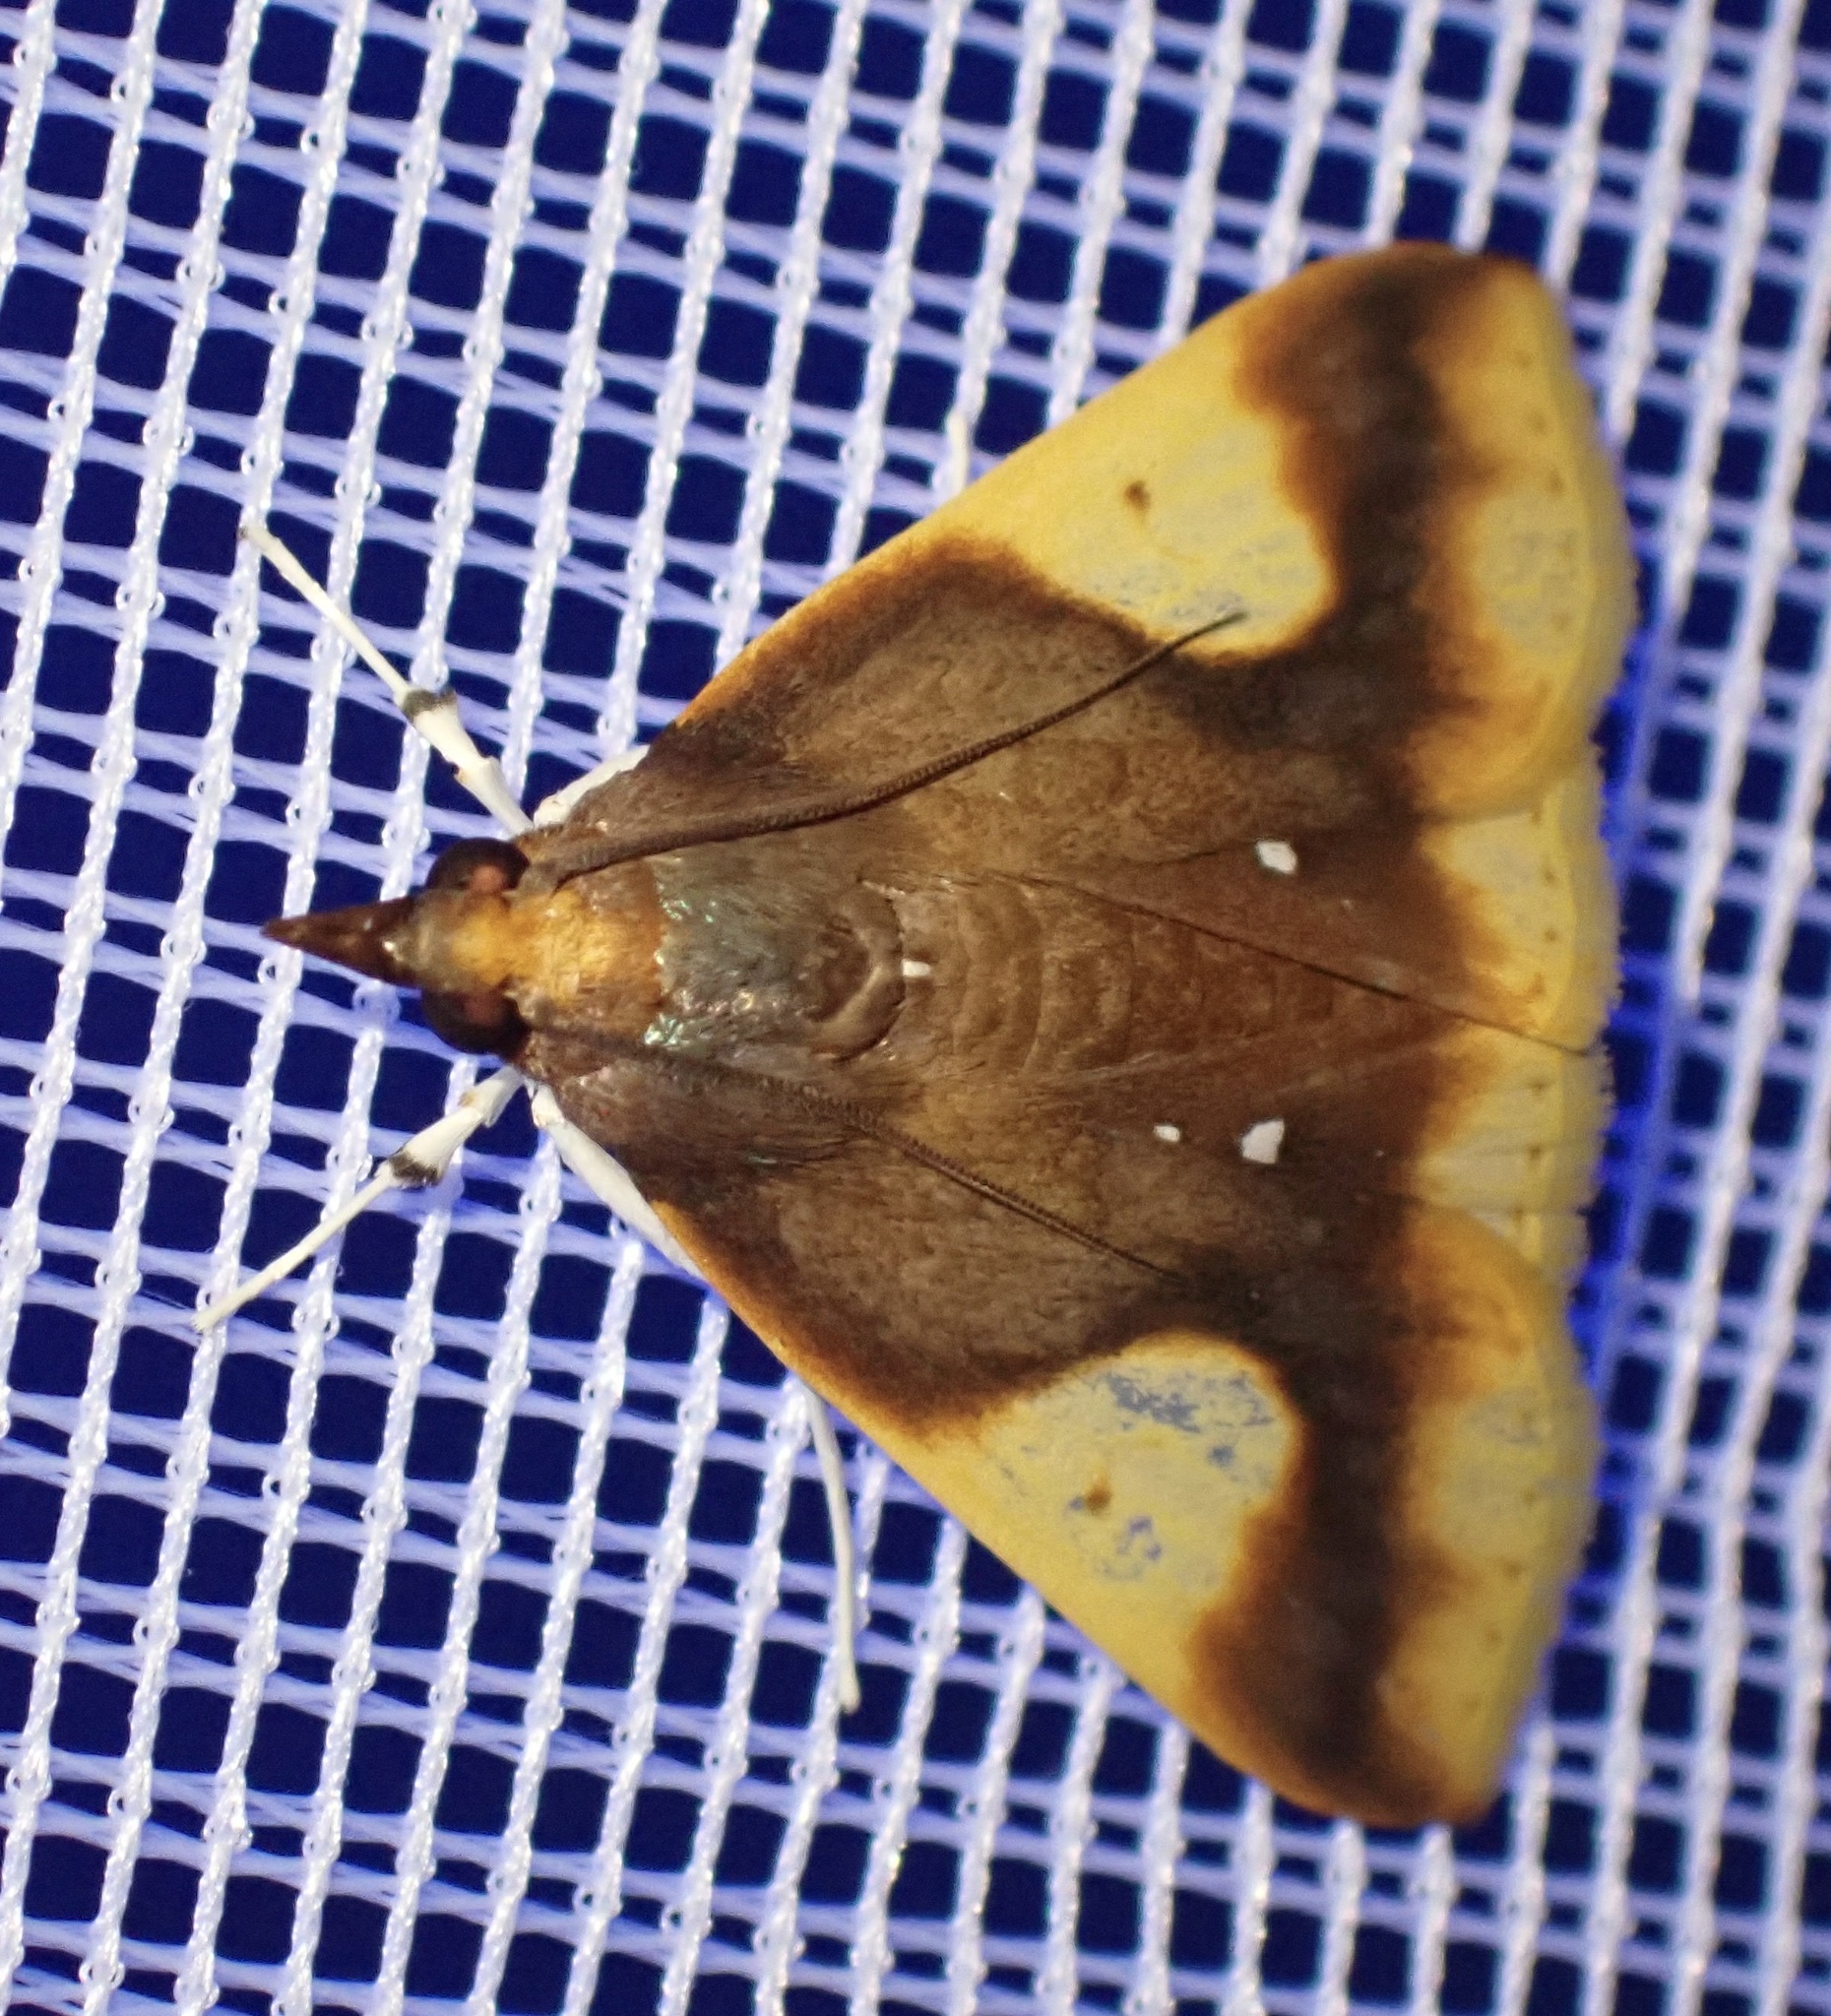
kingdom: Animalia
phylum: Arthropoda
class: Insecta
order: Lepidoptera
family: Crambidae
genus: Calamochrous
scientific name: Calamochrous albipunctalis
